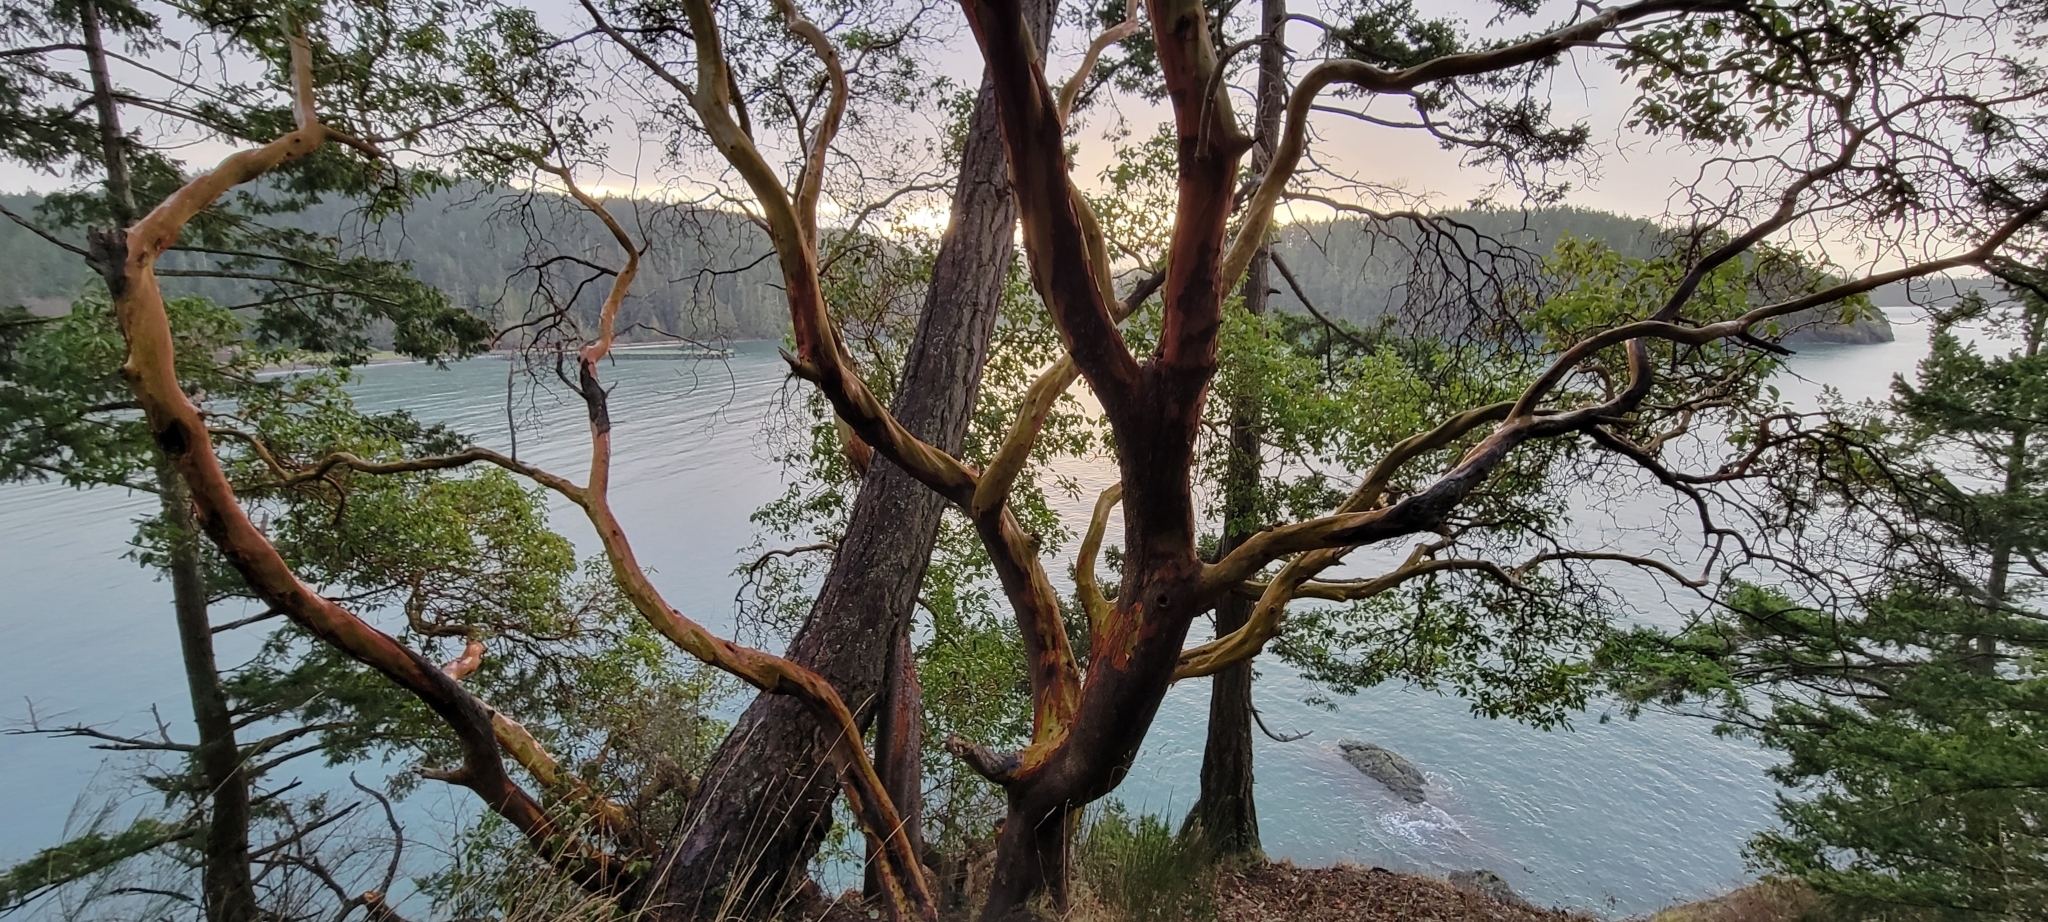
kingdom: Plantae
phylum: Tracheophyta
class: Magnoliopsida
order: Ericales
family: Ericaceae
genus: Arbutus
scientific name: Arbutus menziesii
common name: Pacific madrone
